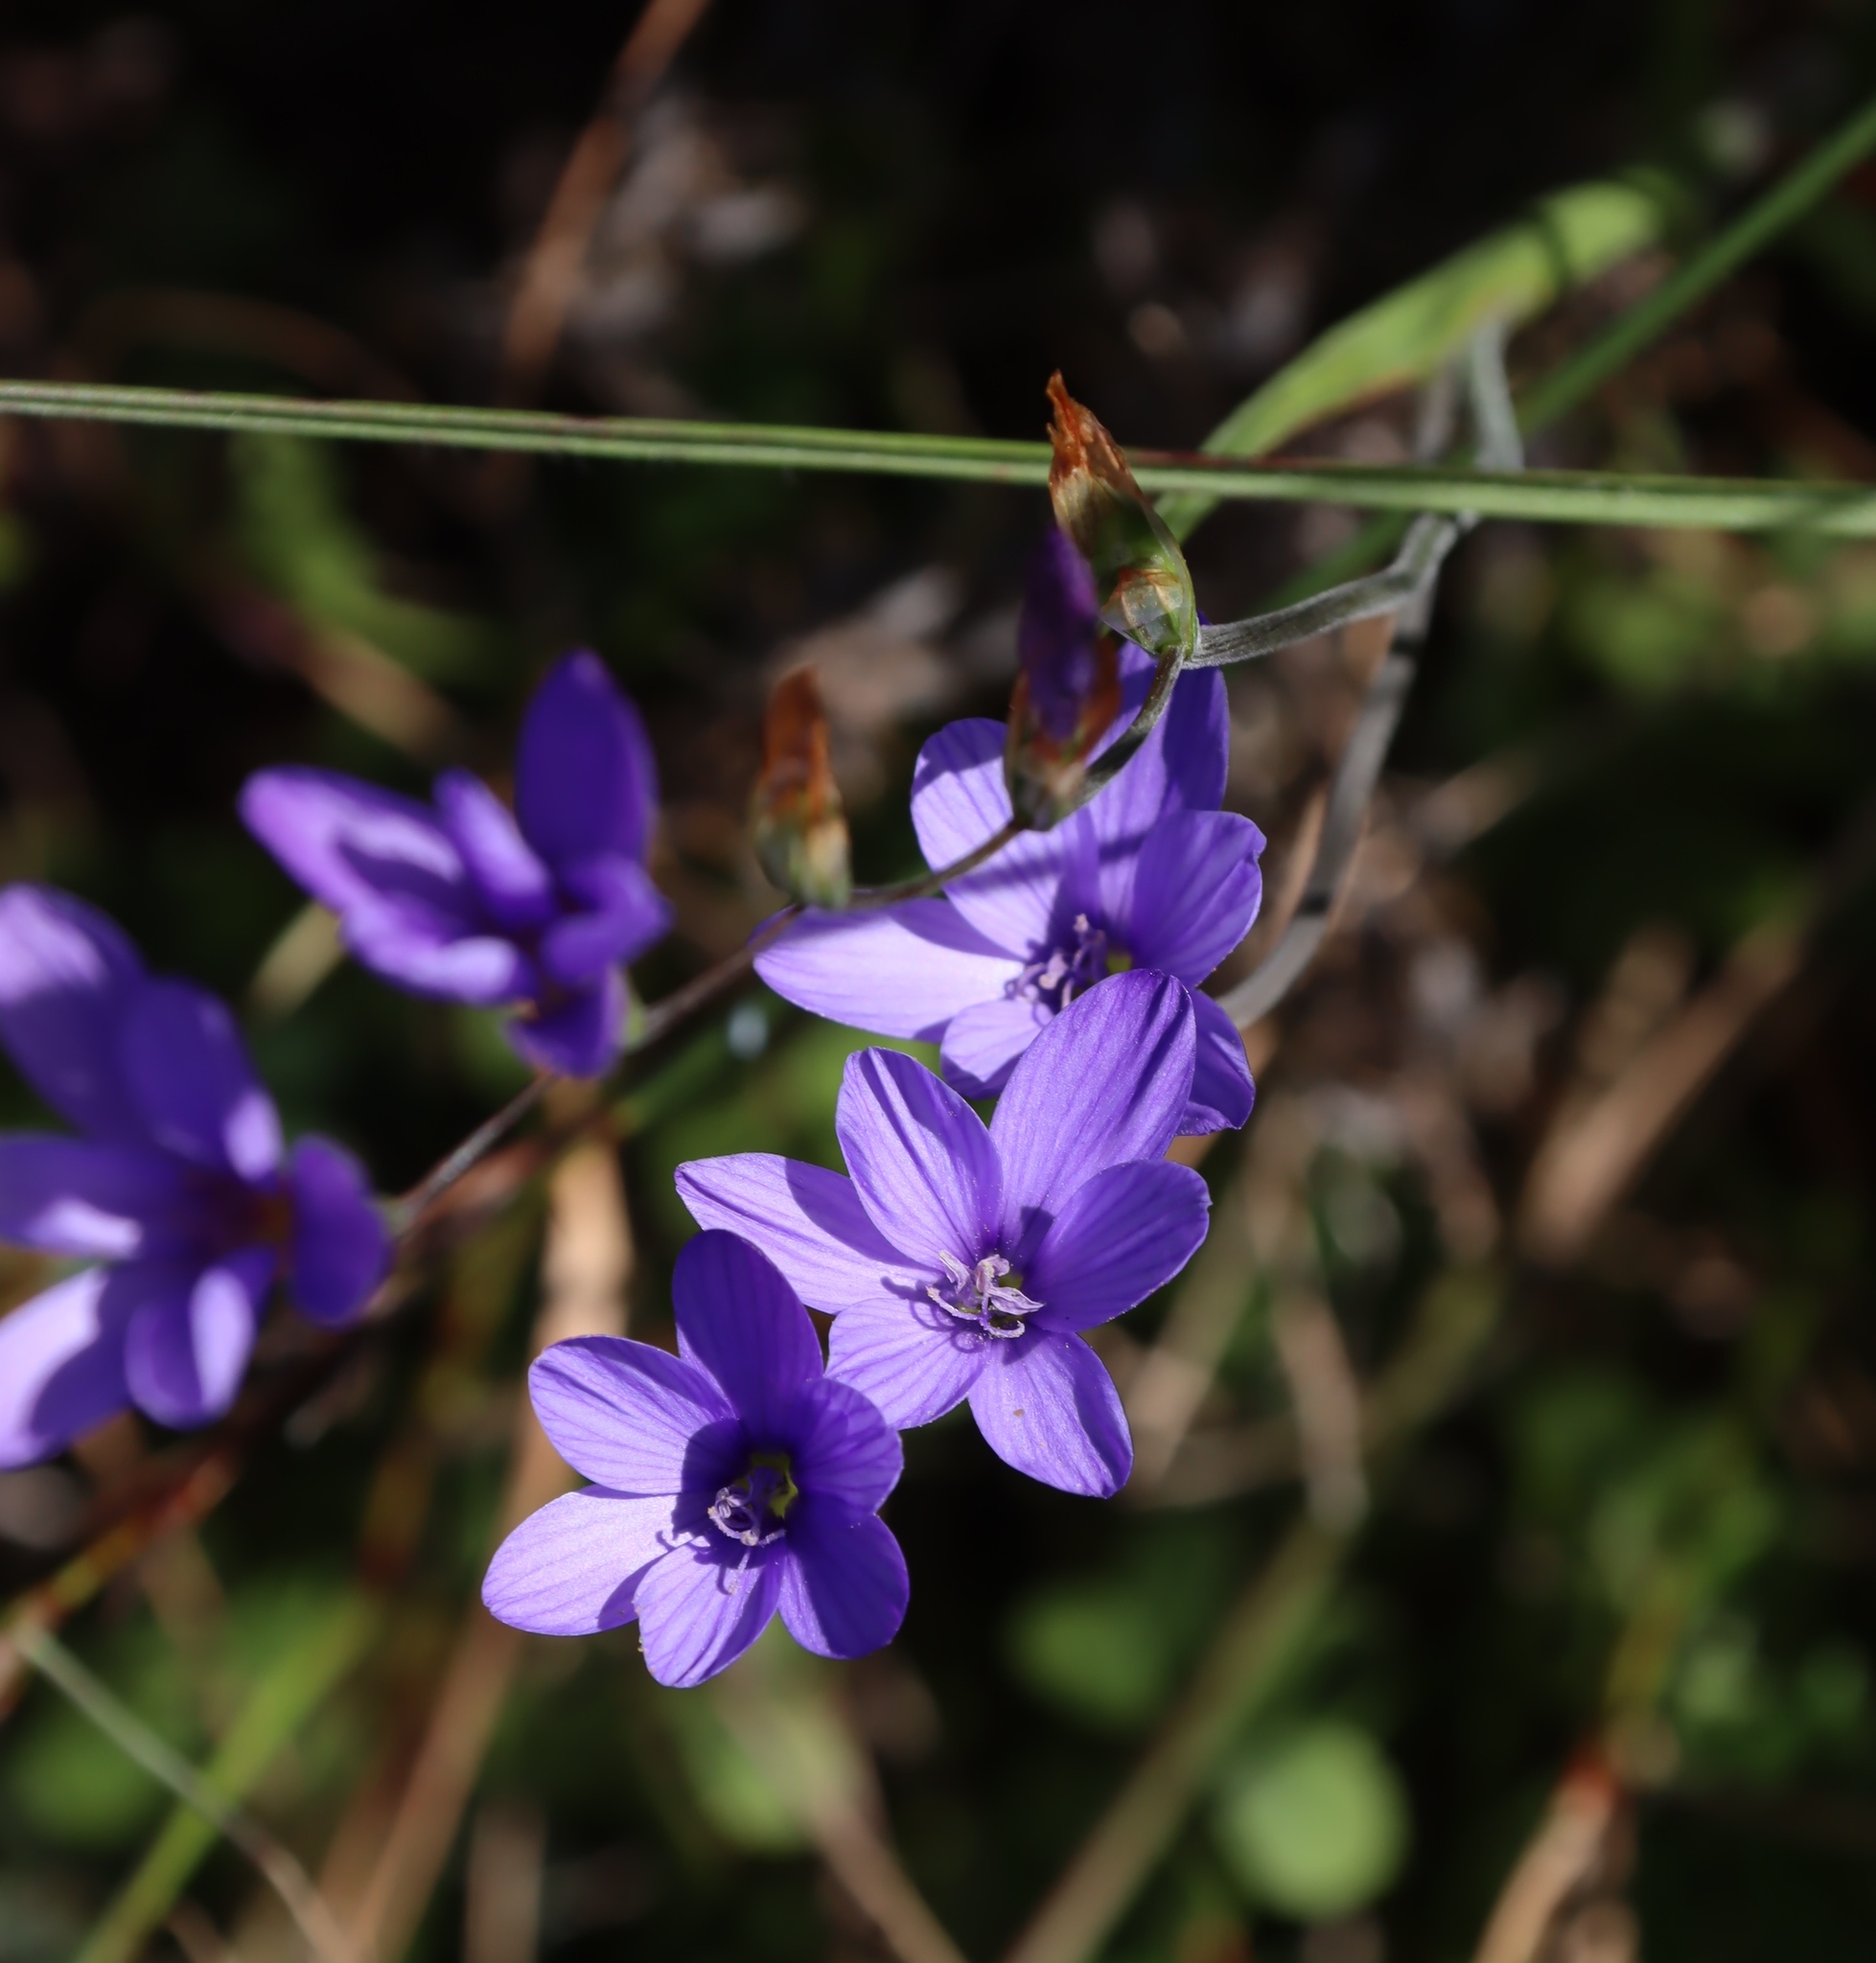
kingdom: Plantae
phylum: Tracheophyta
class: Liliopsida
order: Asparagales
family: Iridaceae
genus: Geissorhiza
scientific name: Geissorhiza aspera
